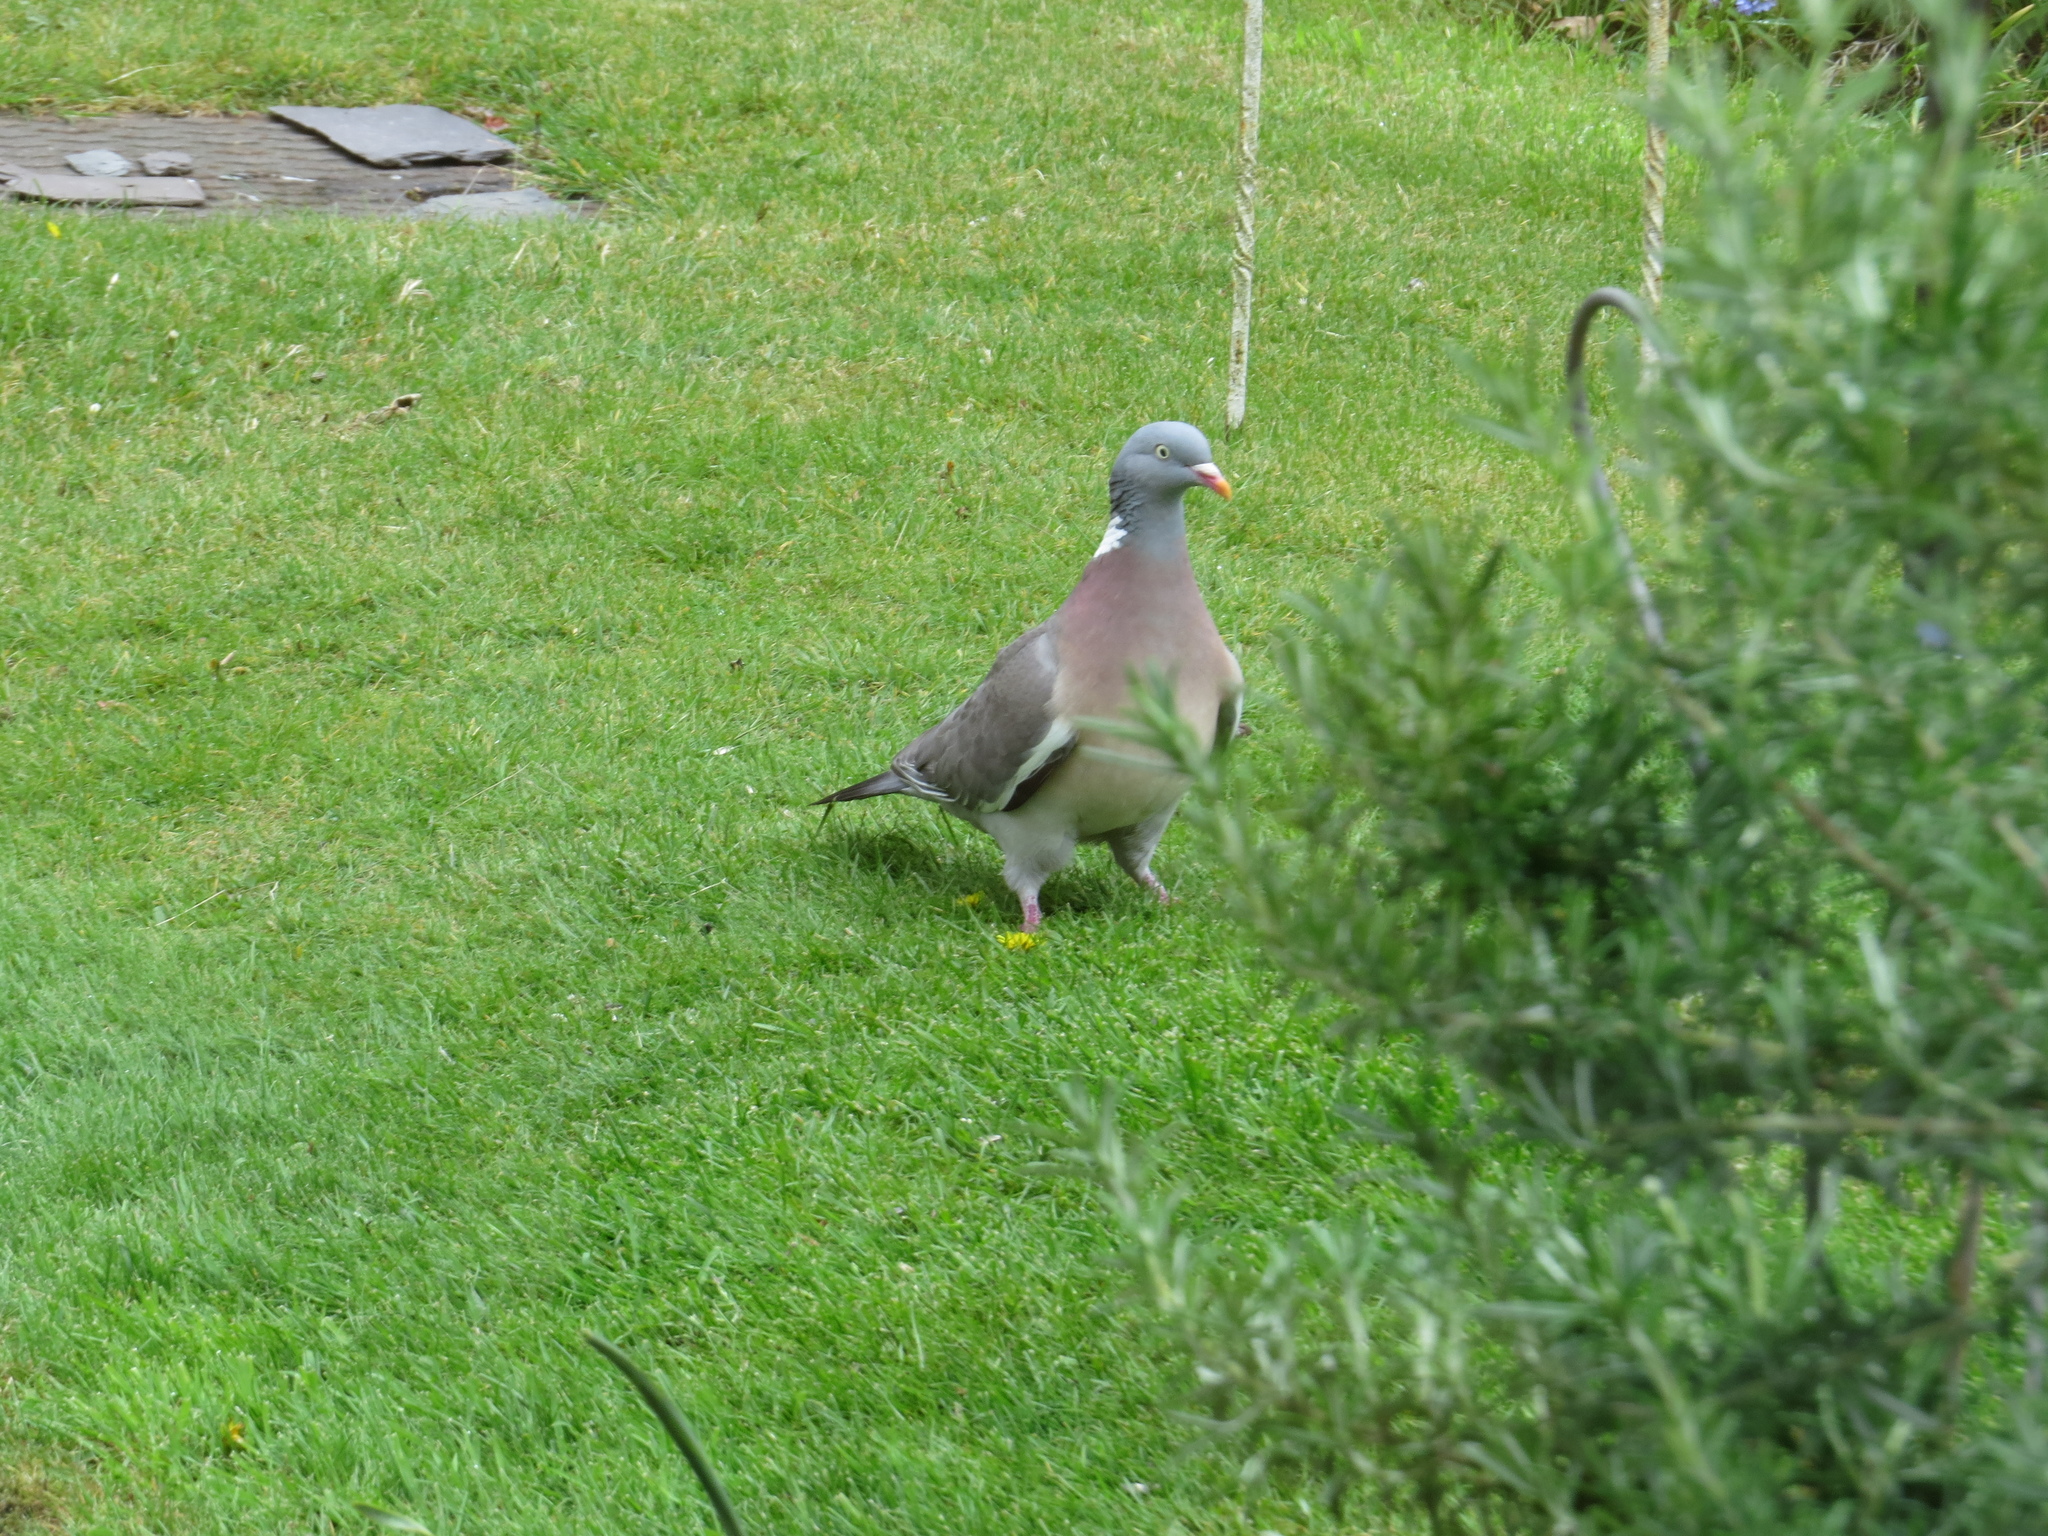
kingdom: Animalia
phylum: Chordata
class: Aves
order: Columbiformes
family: Columbidae
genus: Columba
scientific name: Columba palumbus
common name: Common wood pigeon
